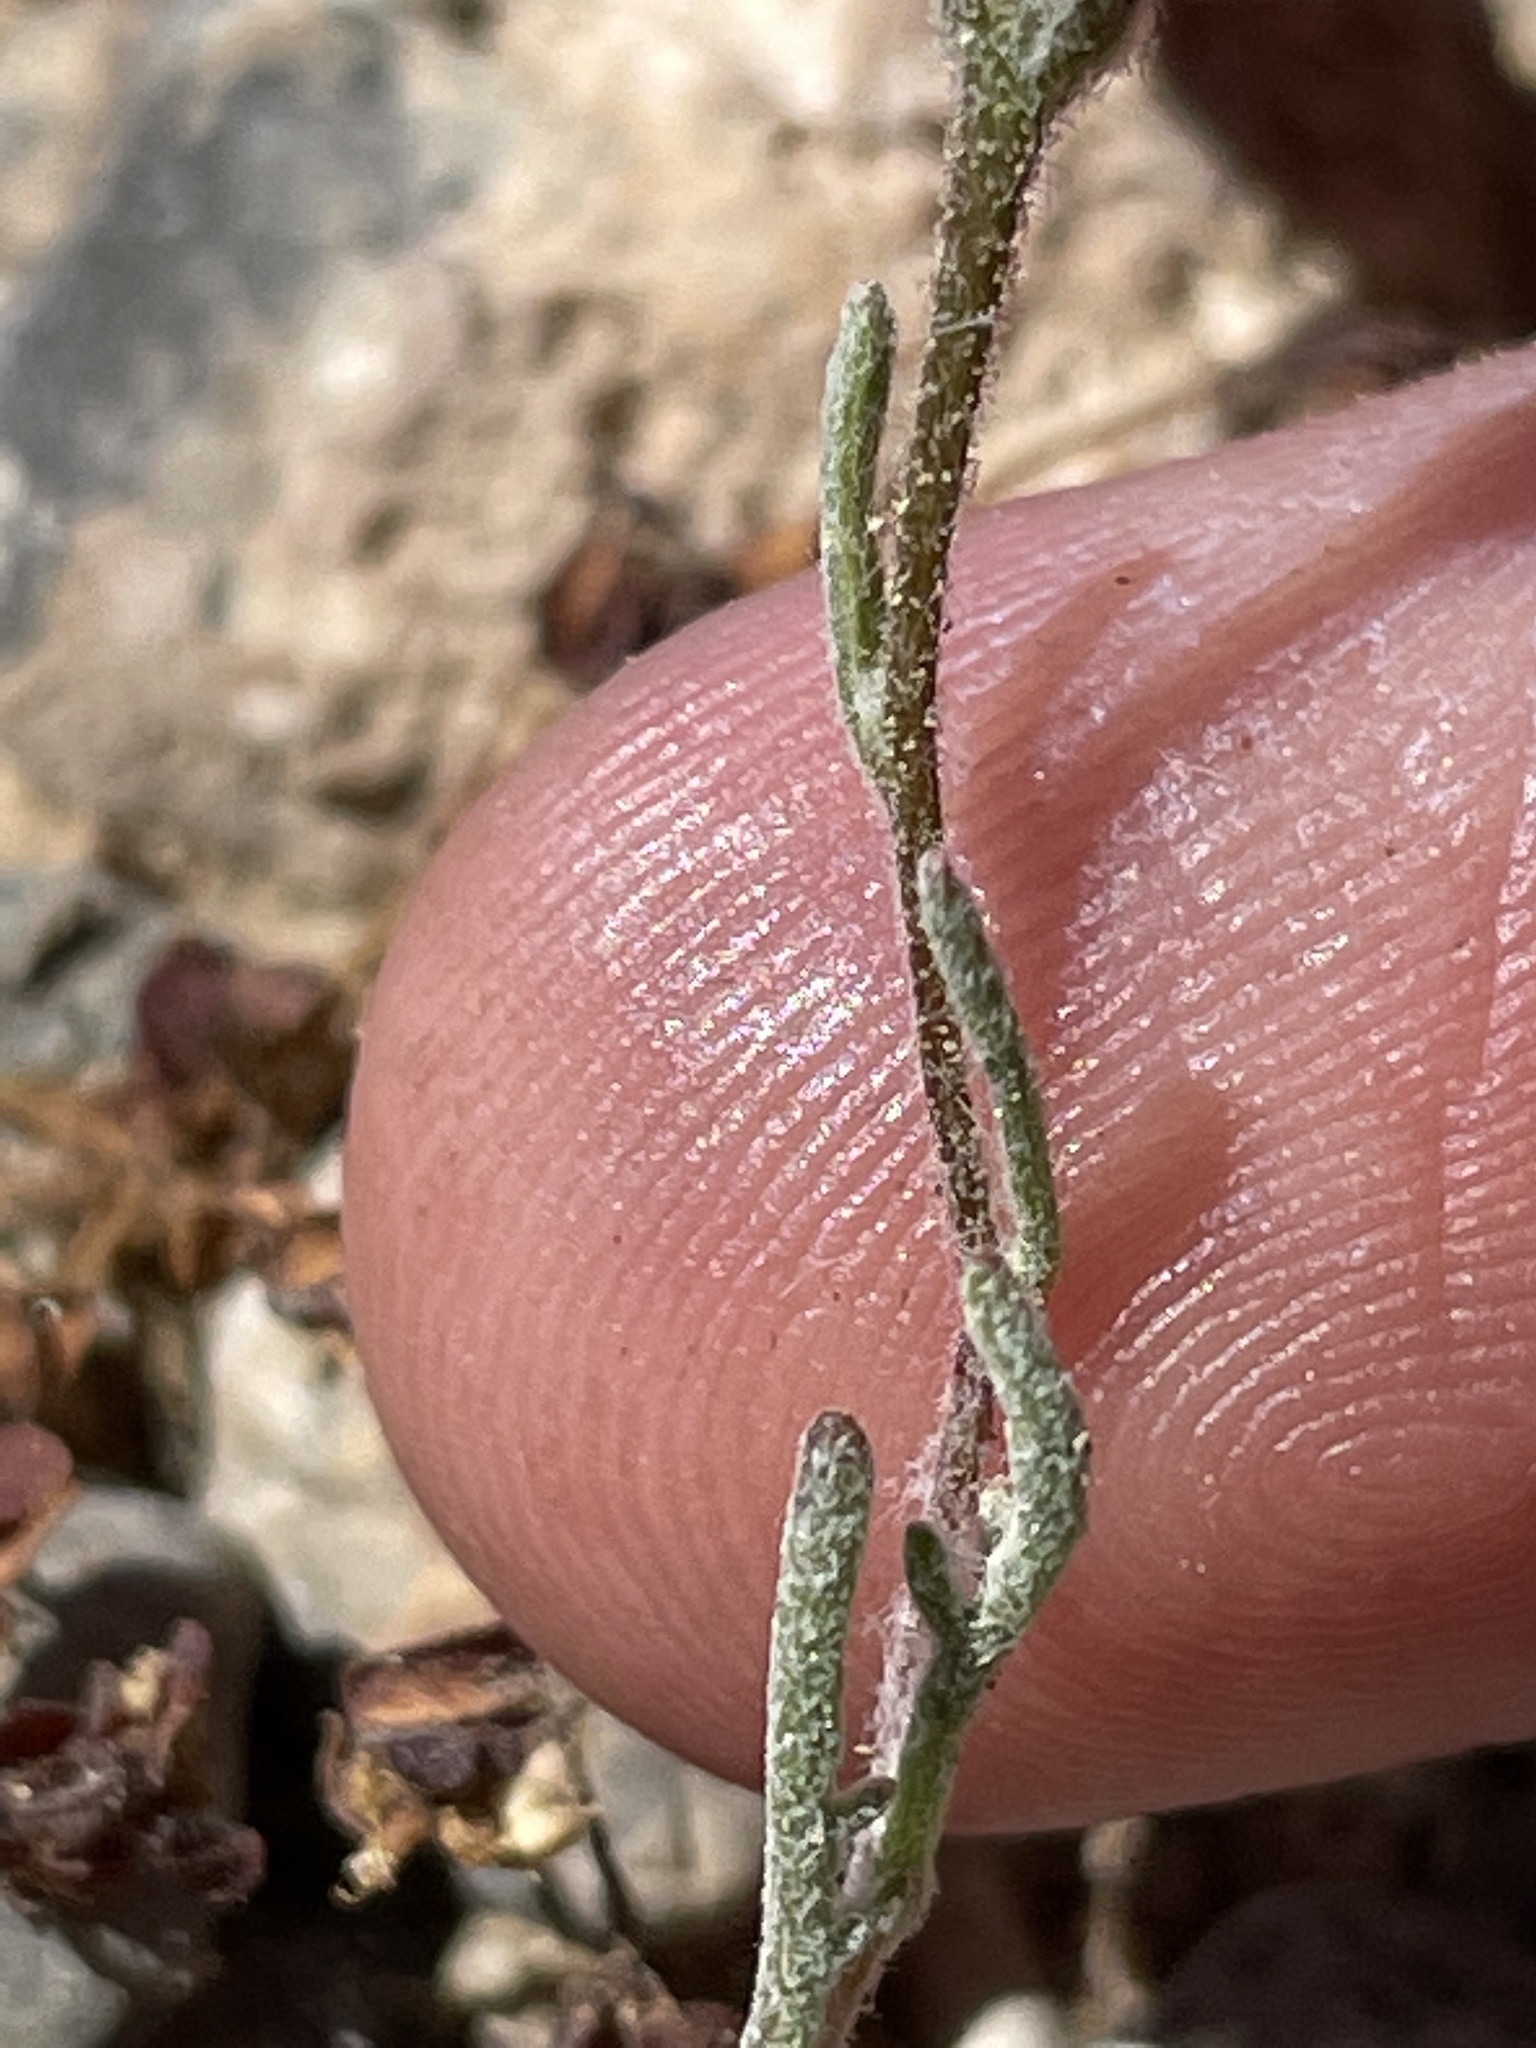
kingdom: Plantae
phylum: Tracheophyta
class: Magnoliopsida
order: Asterales
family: Asteraceae
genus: Chaenactis
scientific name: Chaenactis stevioides
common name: Desert pincushion
